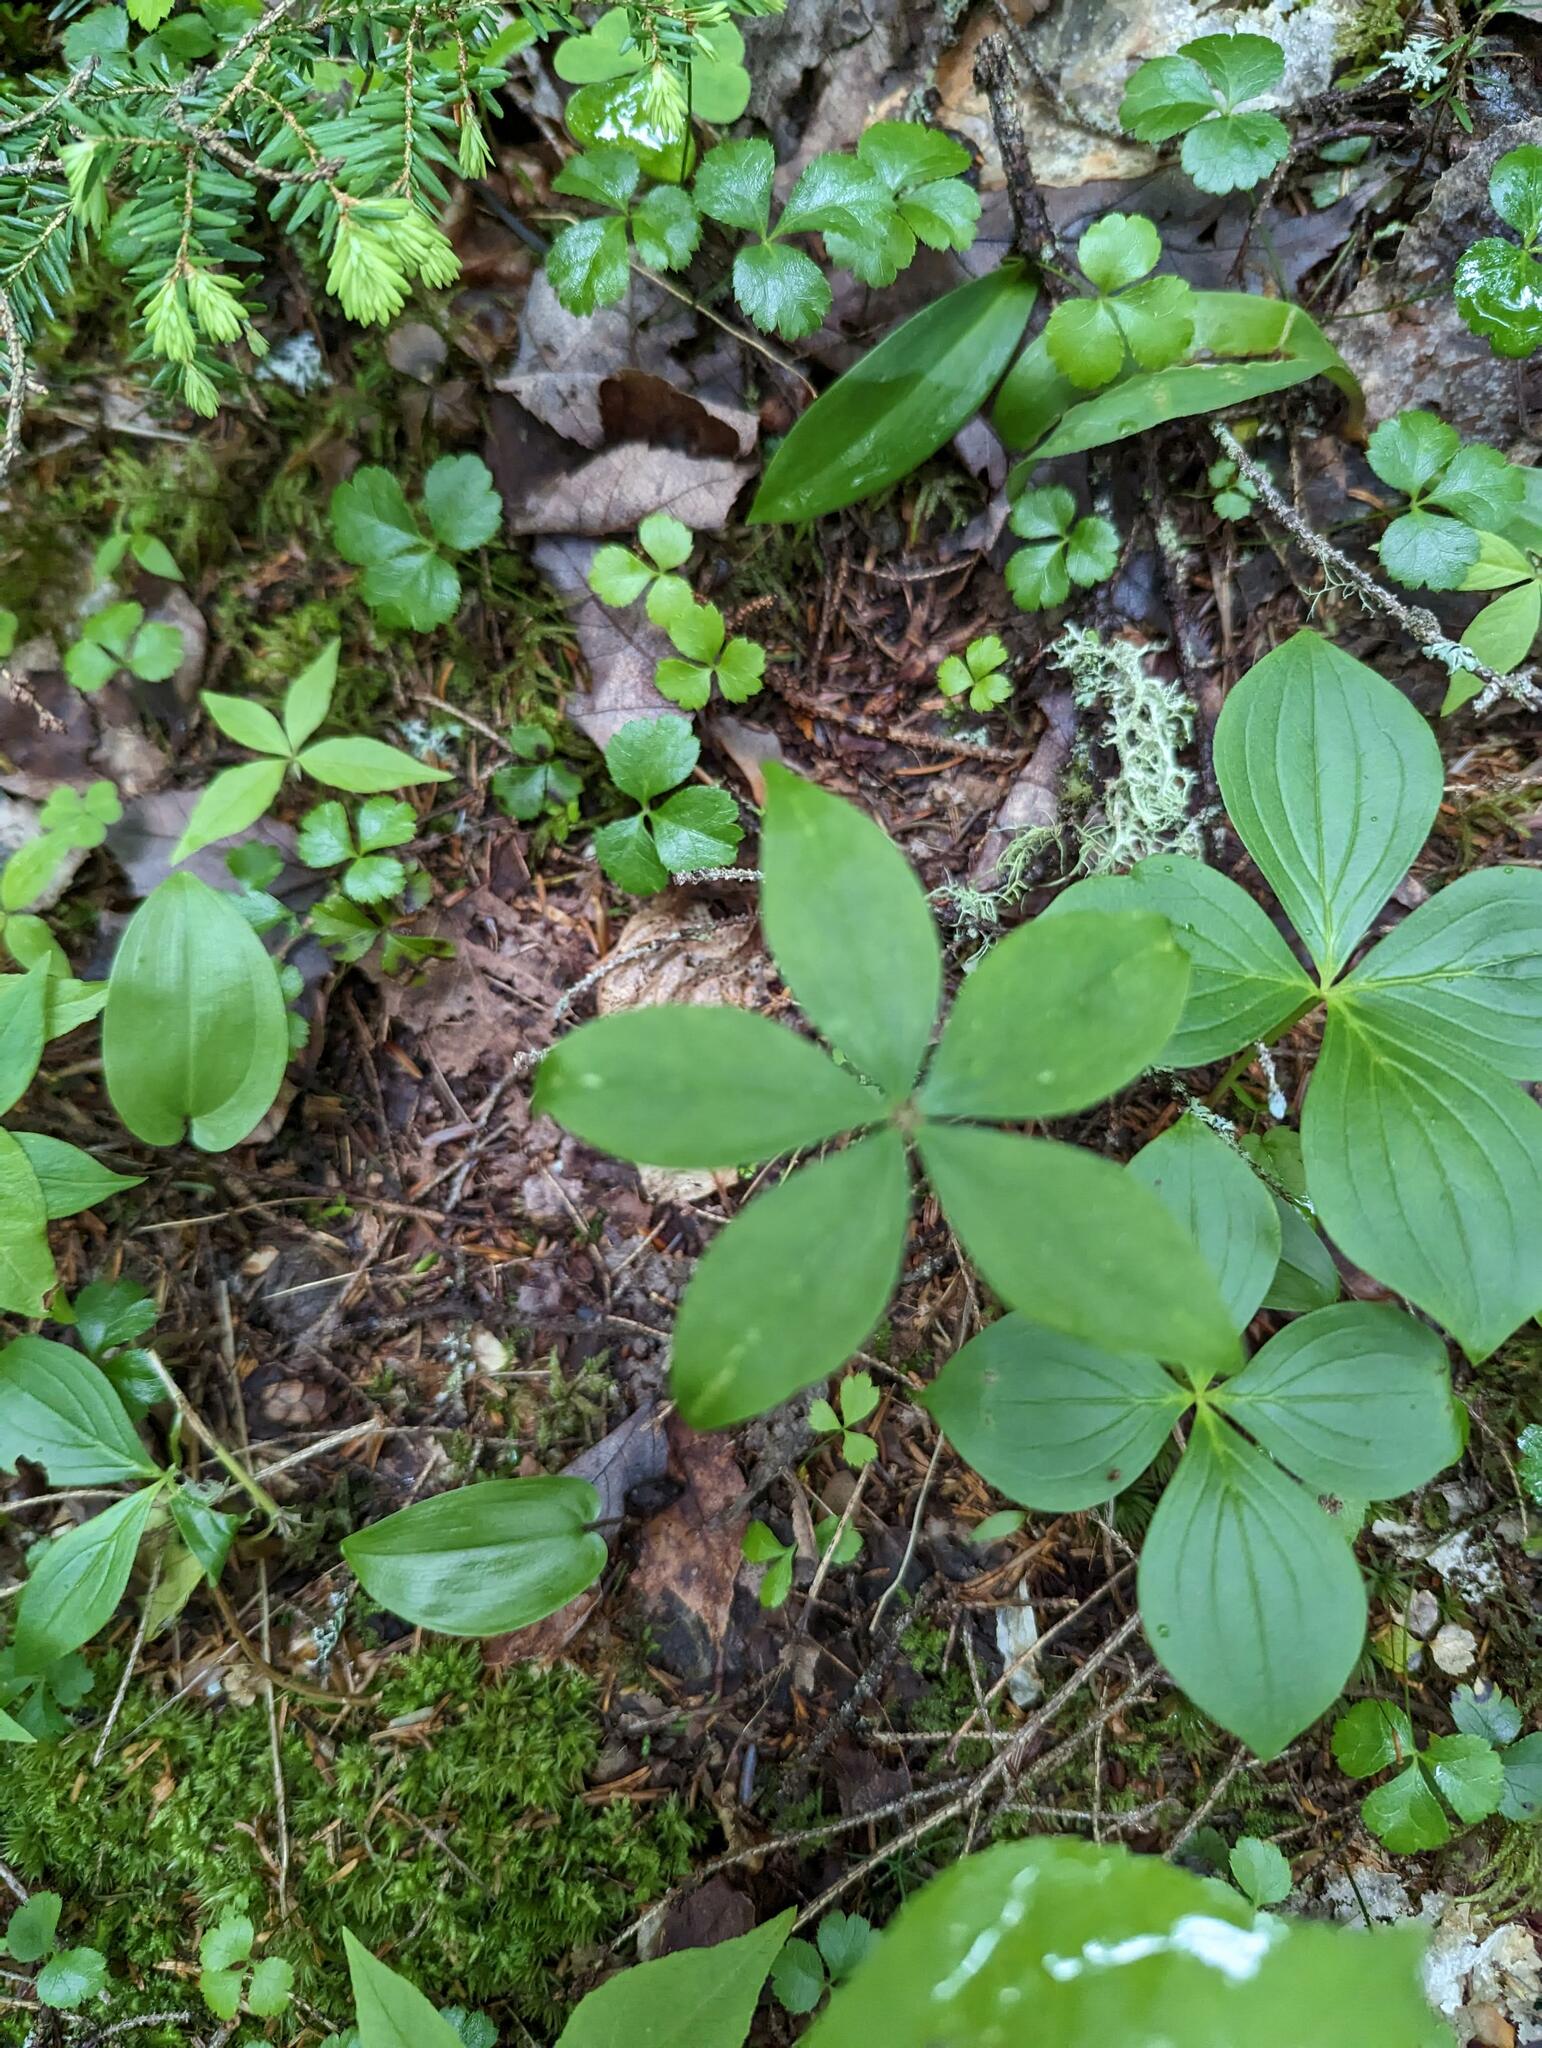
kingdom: Plantae
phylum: Tracheophyta
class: Liliopsida
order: Liliales
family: Liliaceae
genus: Medeola
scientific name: Medeola virginiana
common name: Indian cucumber-root
